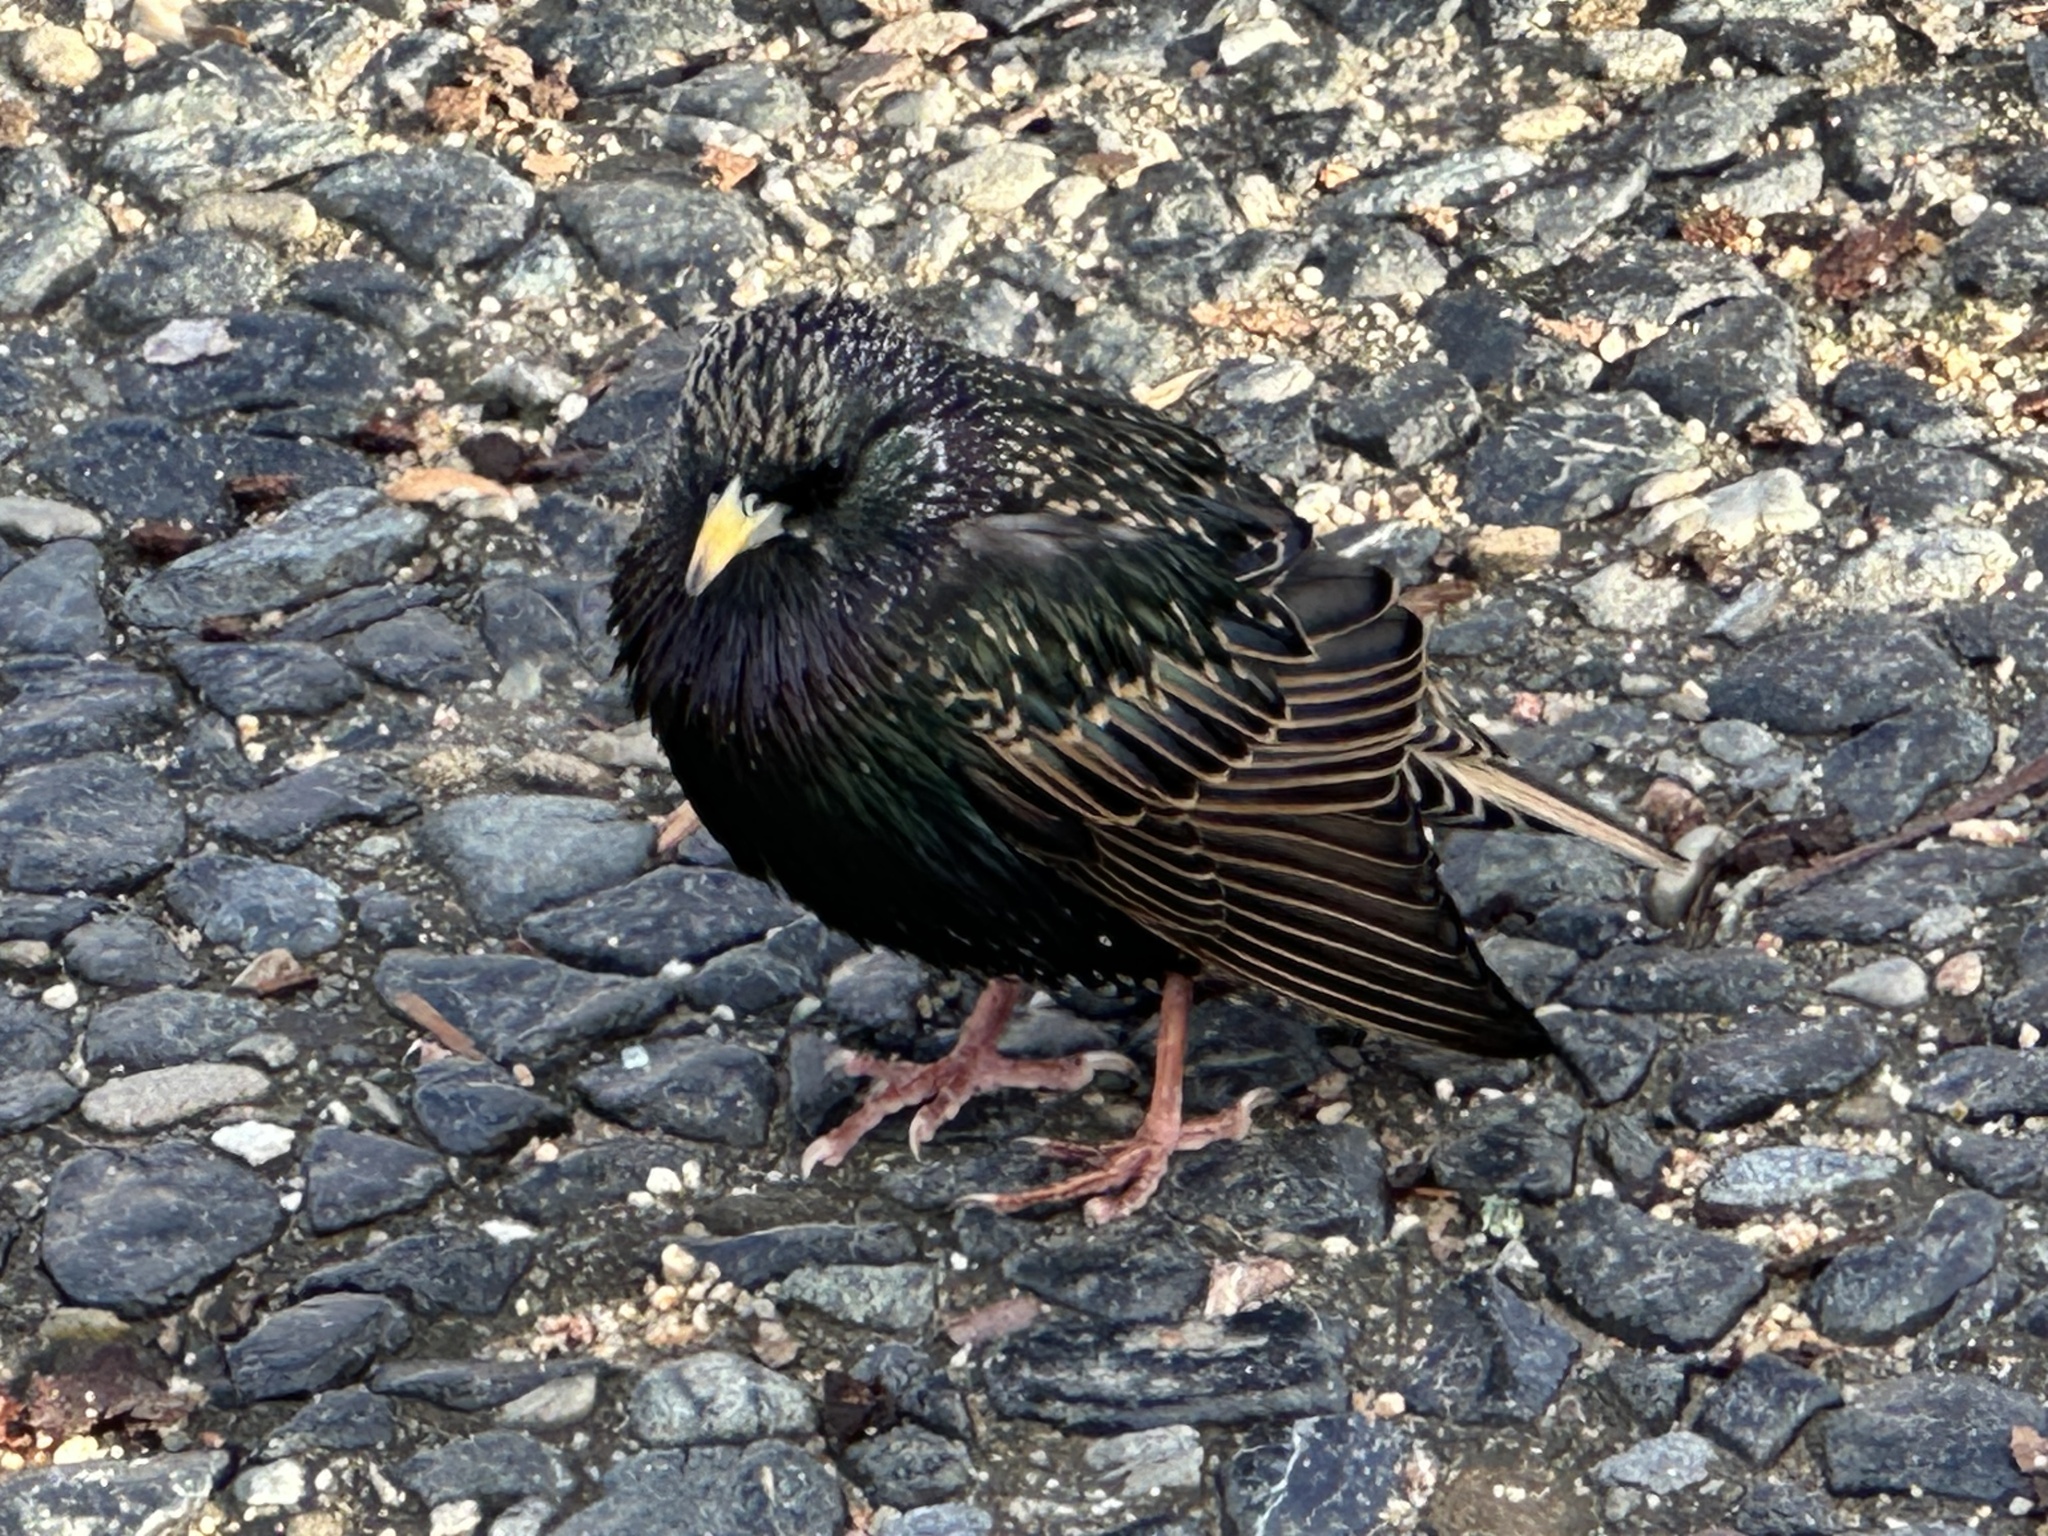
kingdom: Animalia
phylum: Chordata
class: Aves
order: Passeriformes
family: Sturnidae
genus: Sturnus
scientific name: Sturnus vulgaris
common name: Common starling
